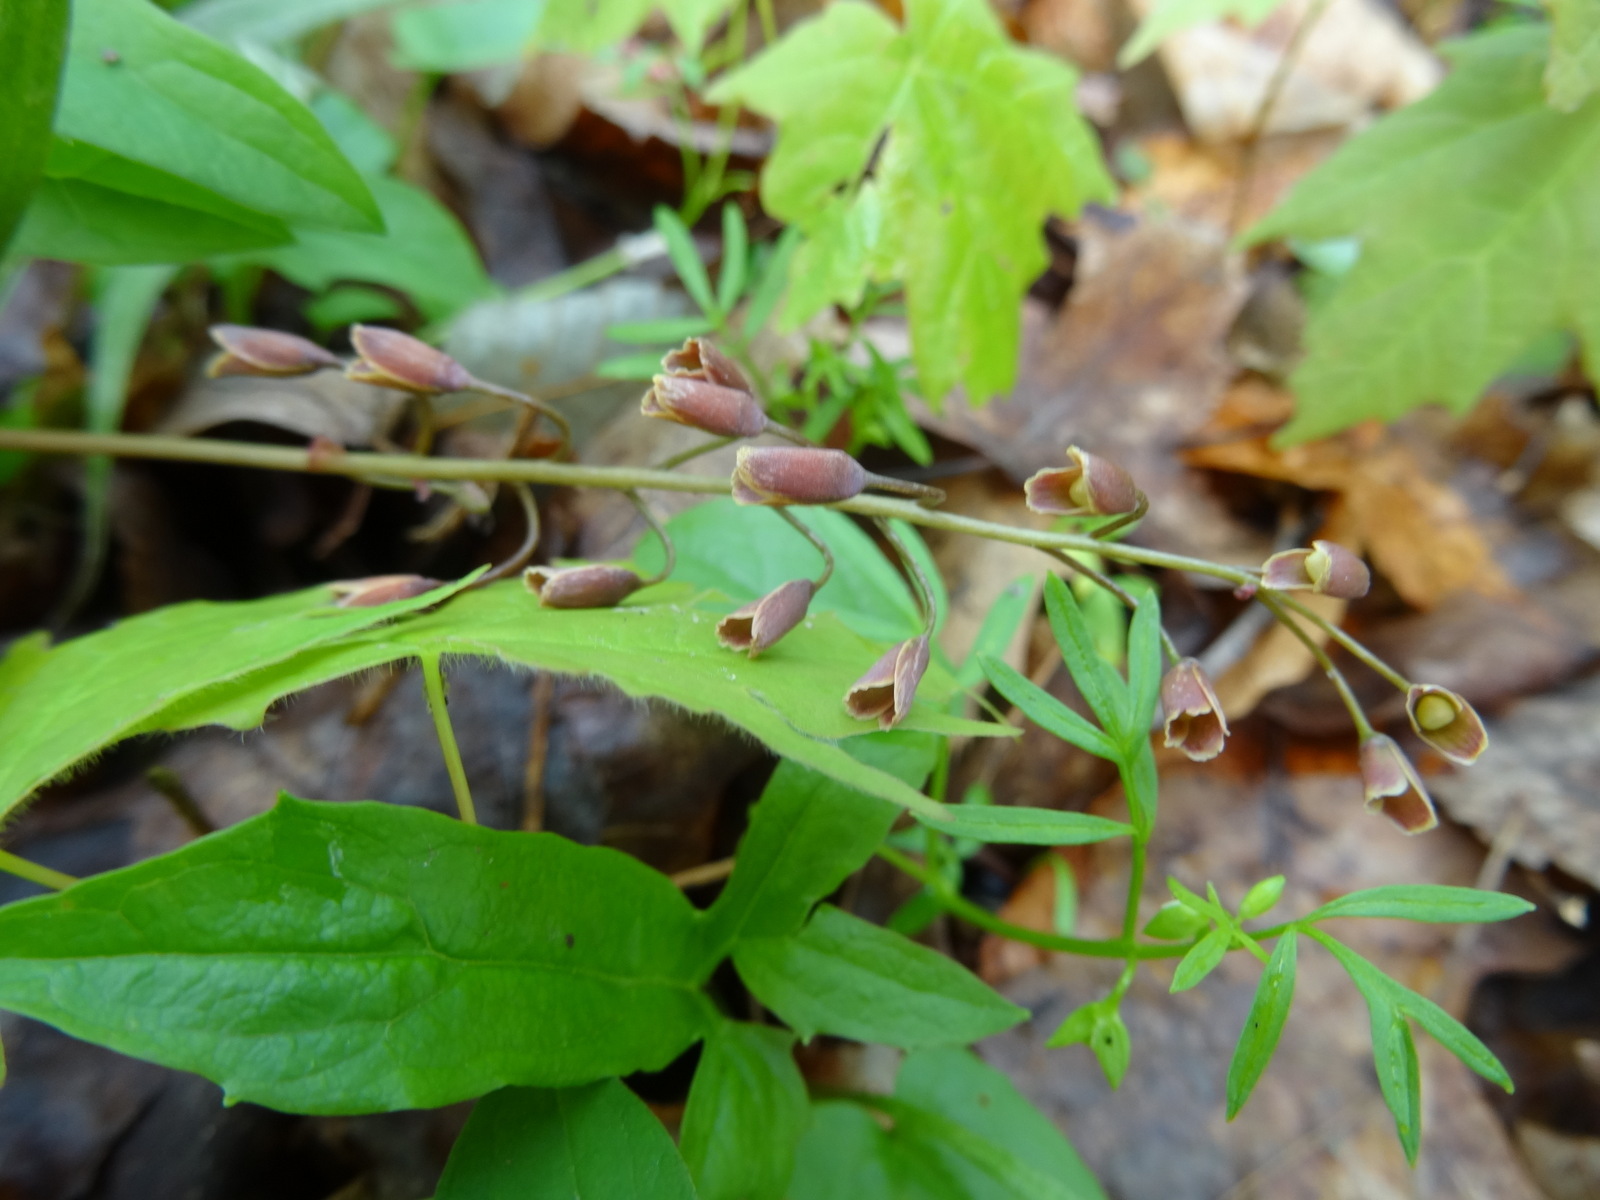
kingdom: Plantae
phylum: Tracheophyta
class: Magnoliopsida
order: Caryophyllales
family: Montiaceae
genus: Claytonia
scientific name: Claytonia virginica
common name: Virginia springbeauty
